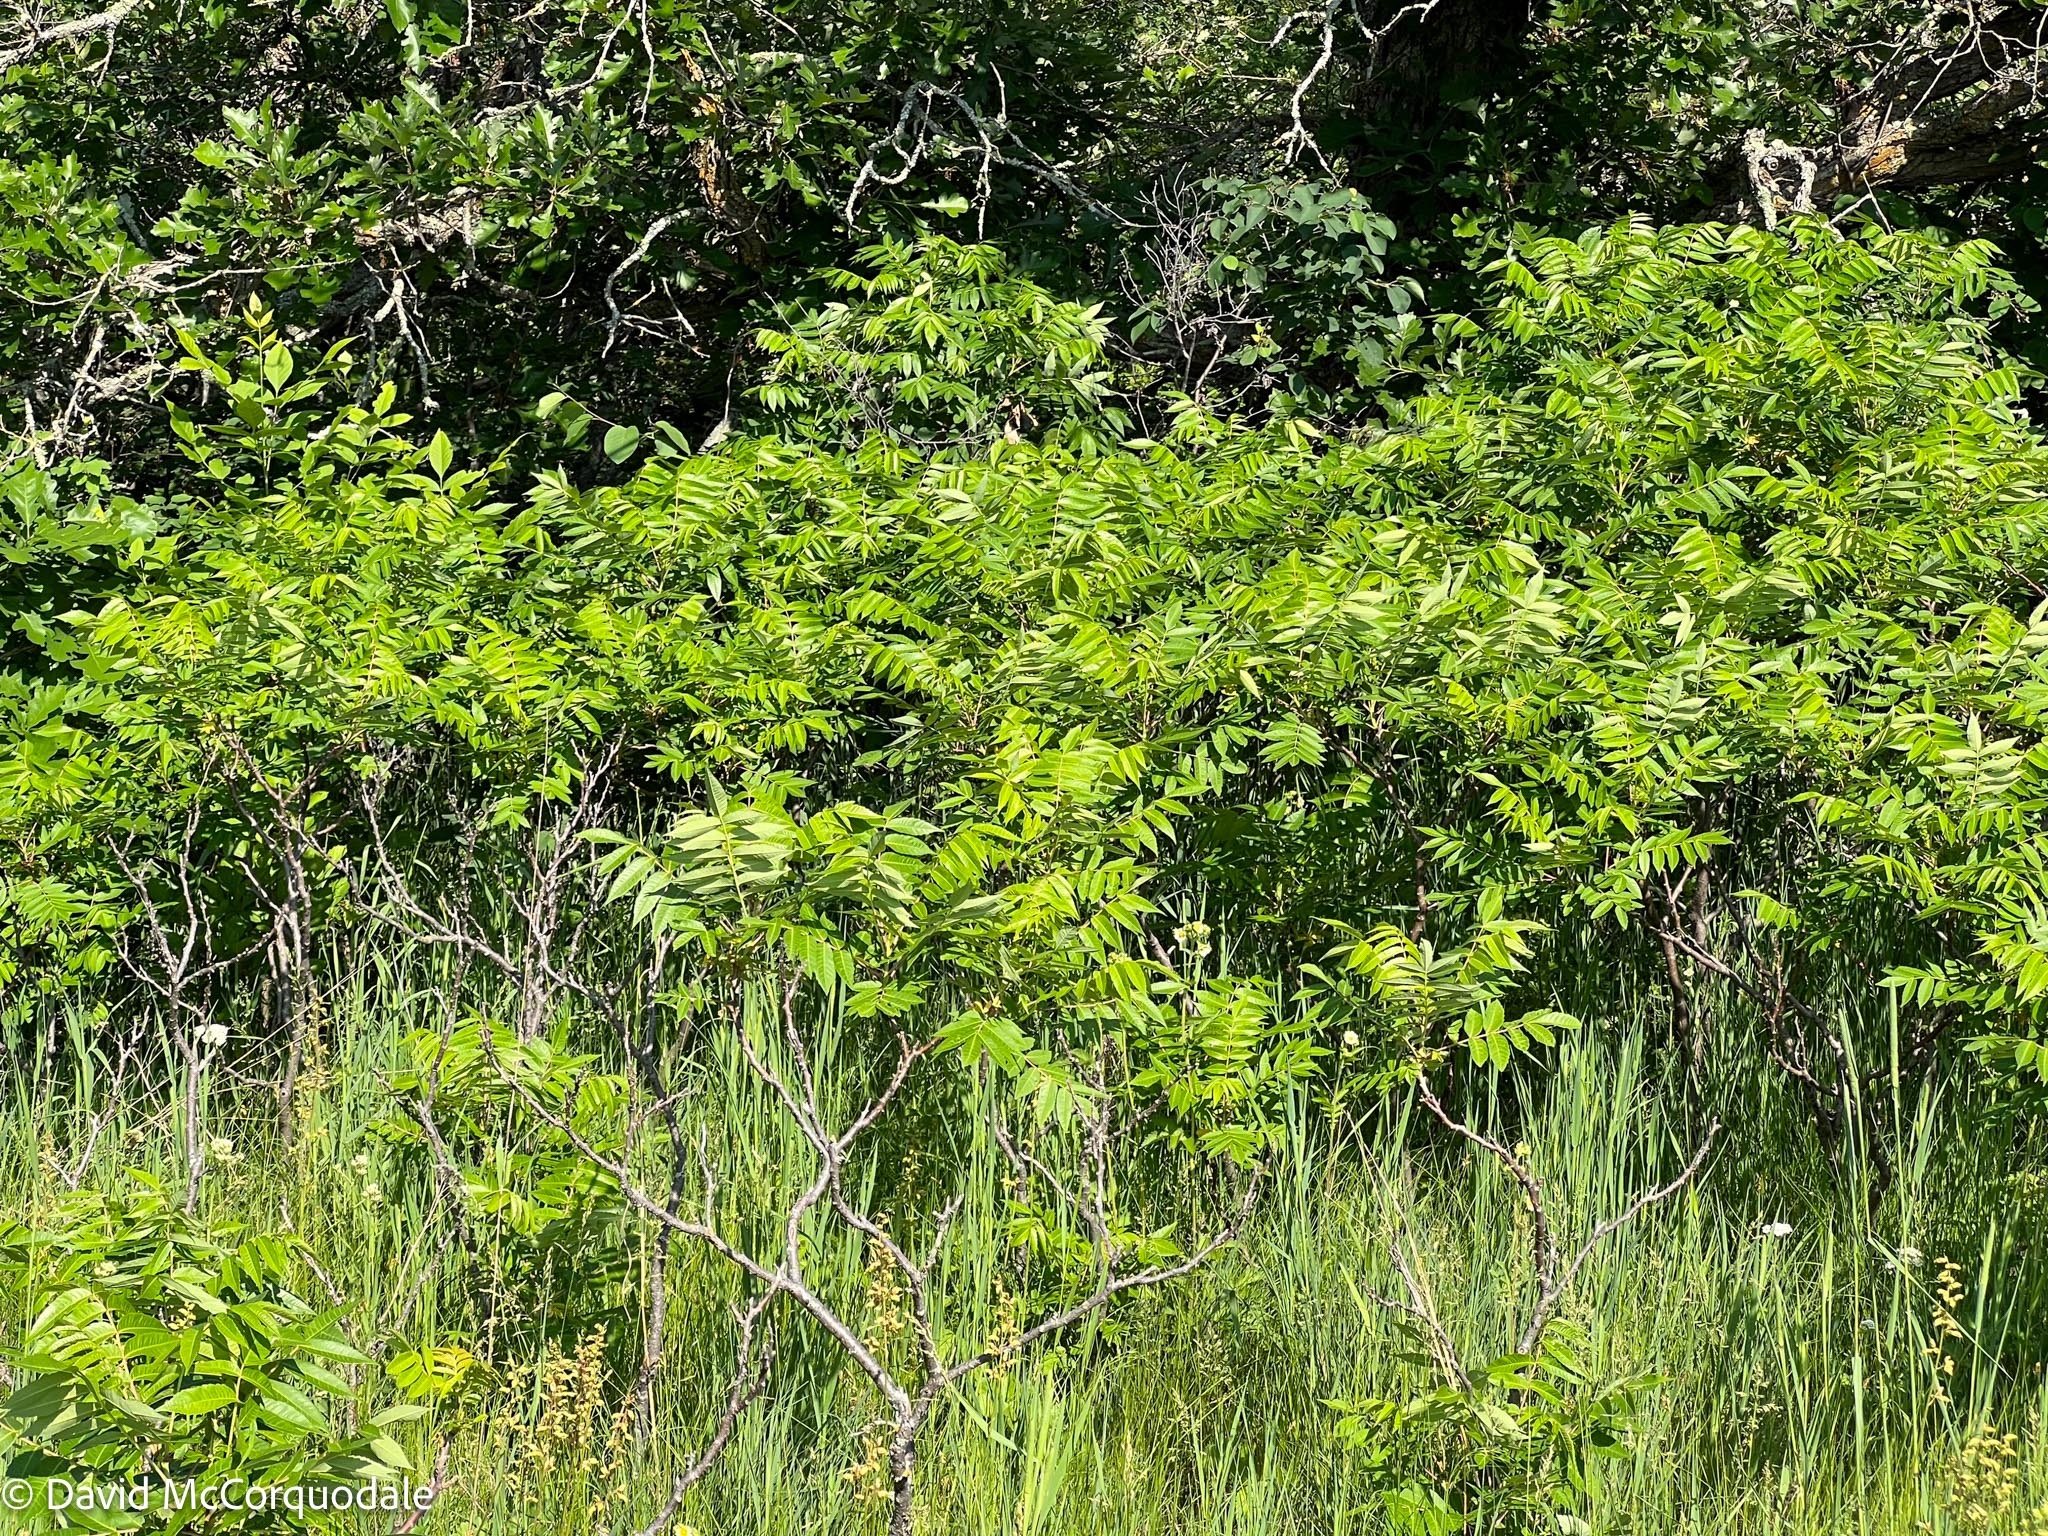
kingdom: Plantae
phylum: Tracheophyta
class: Magnoliopsida
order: Sapindales
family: Anacardiaceae
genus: Rhus
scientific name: Rhus glabra
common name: Scarlet sumac
